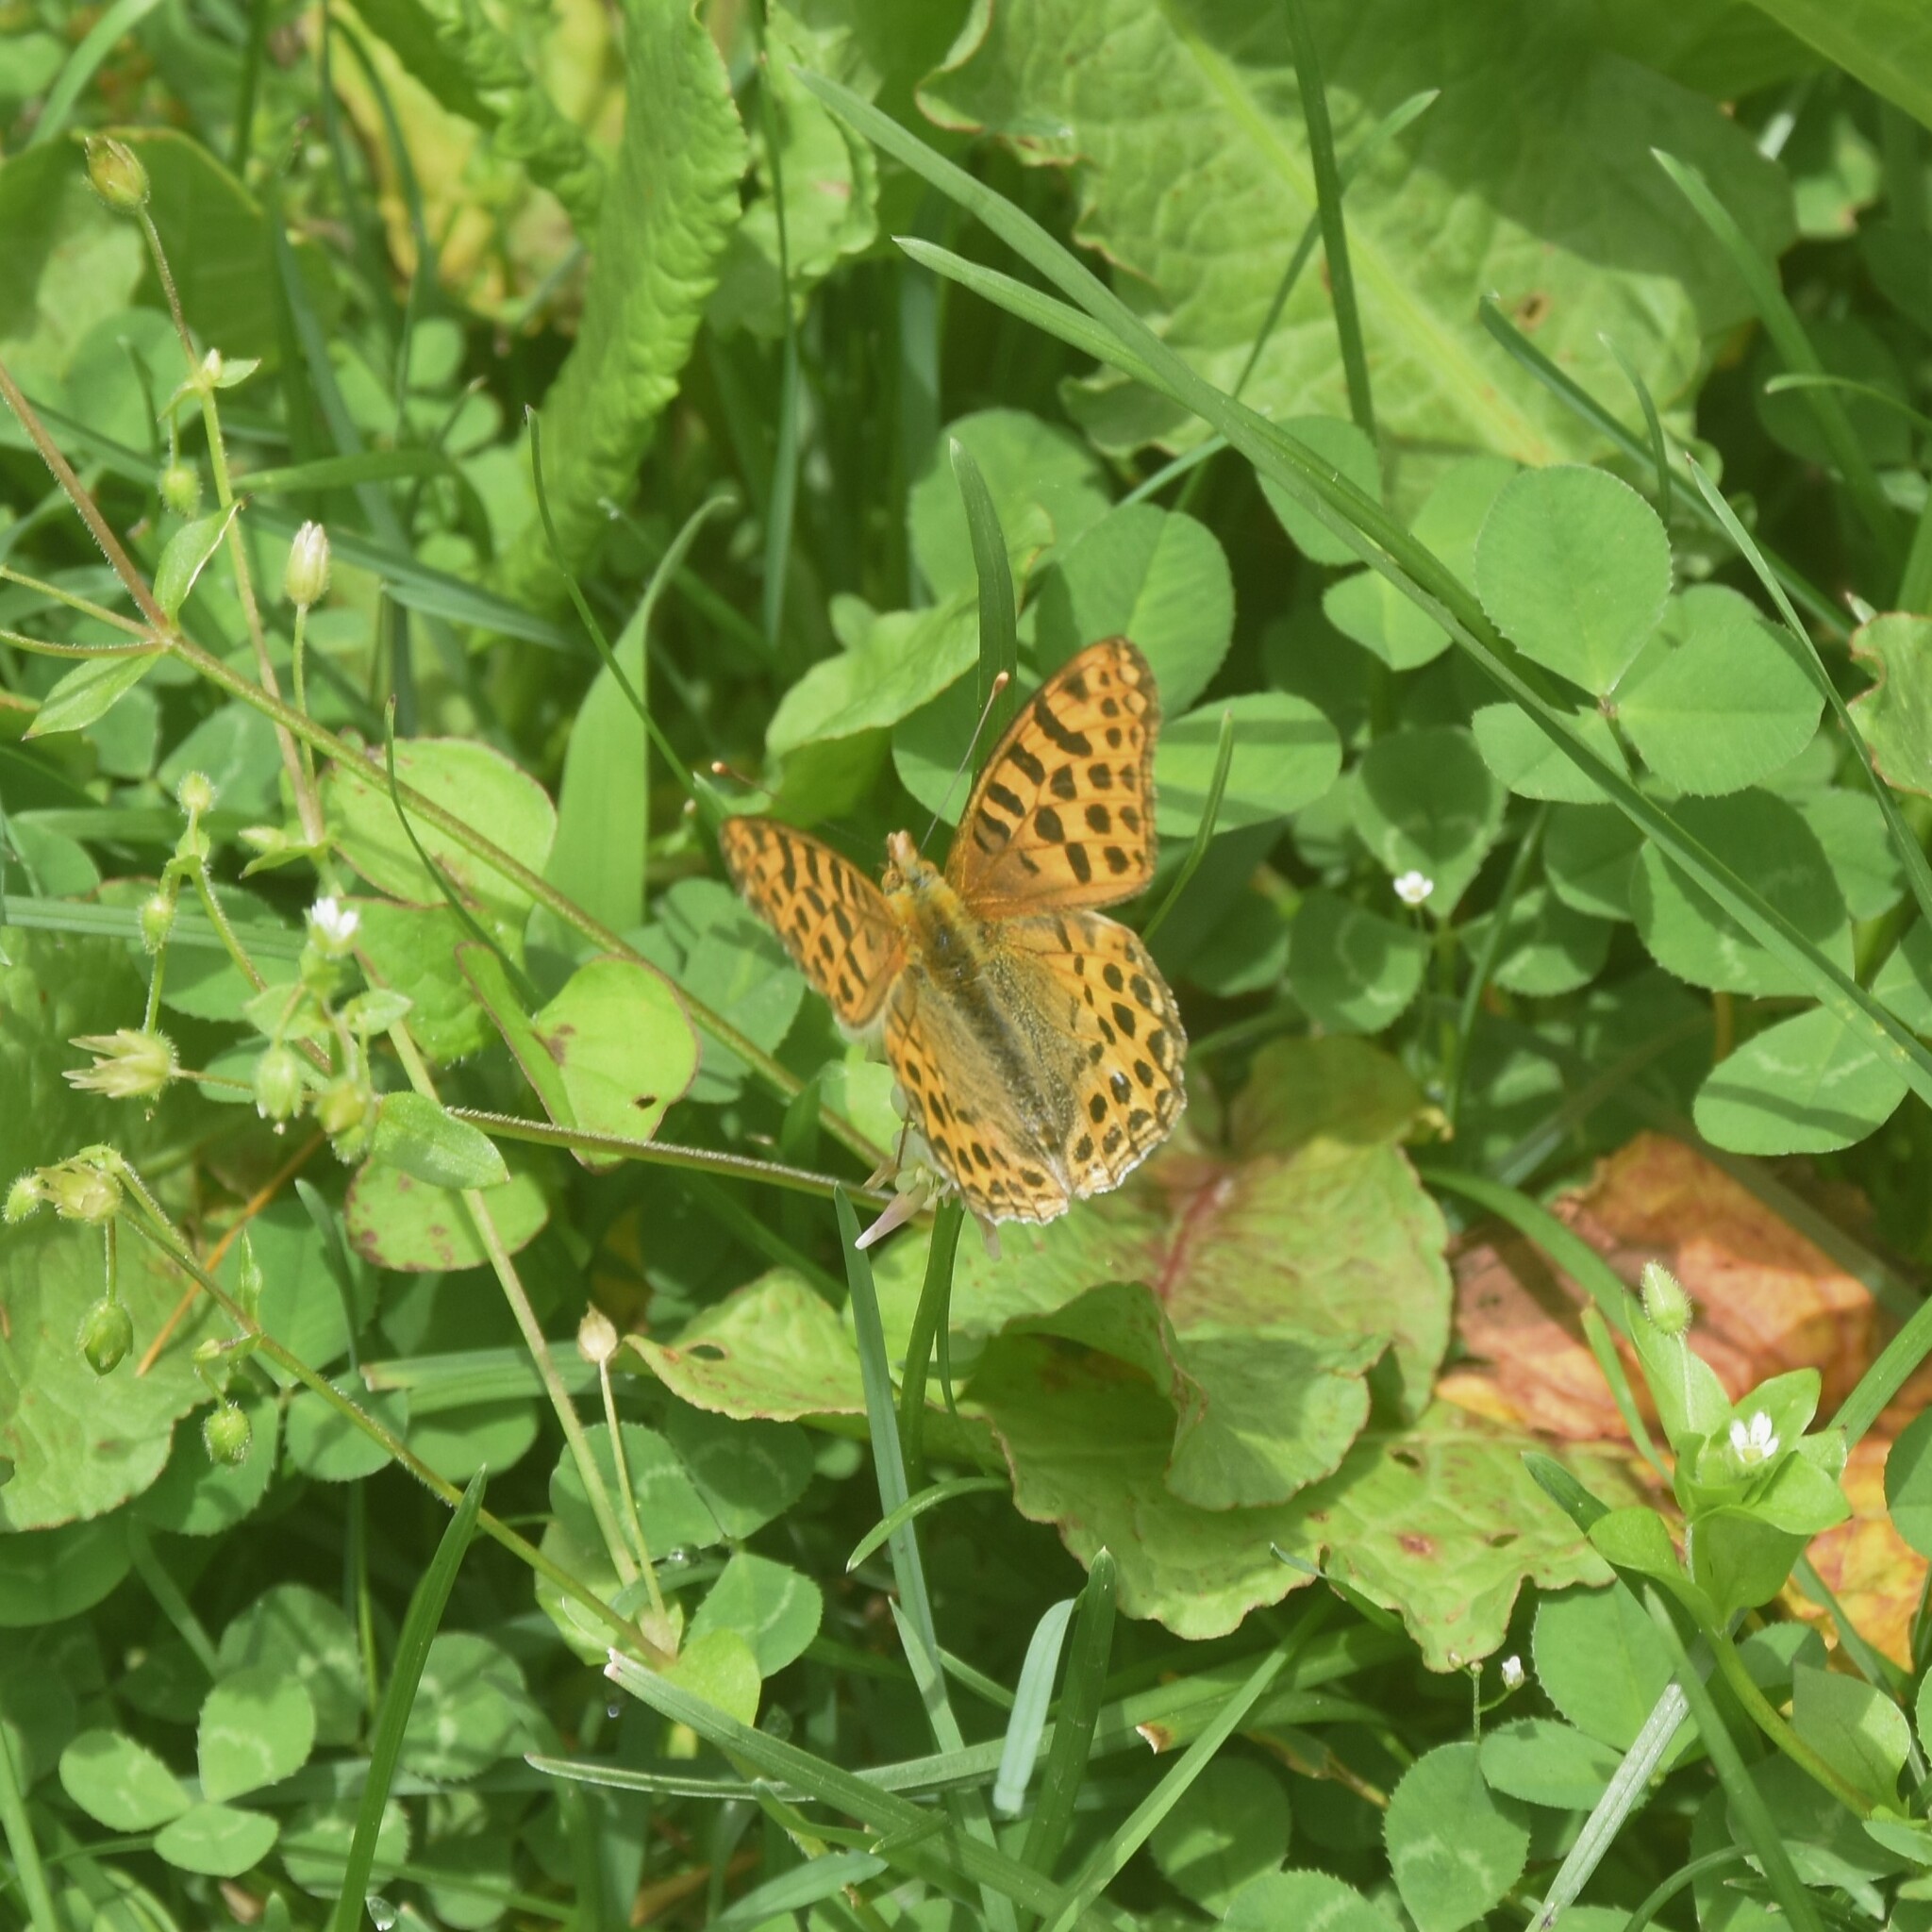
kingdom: Animalia
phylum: Arthropoda
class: Insecta
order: Lepidoptera
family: Nymphalidae
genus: Issoria
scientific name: Issoria
